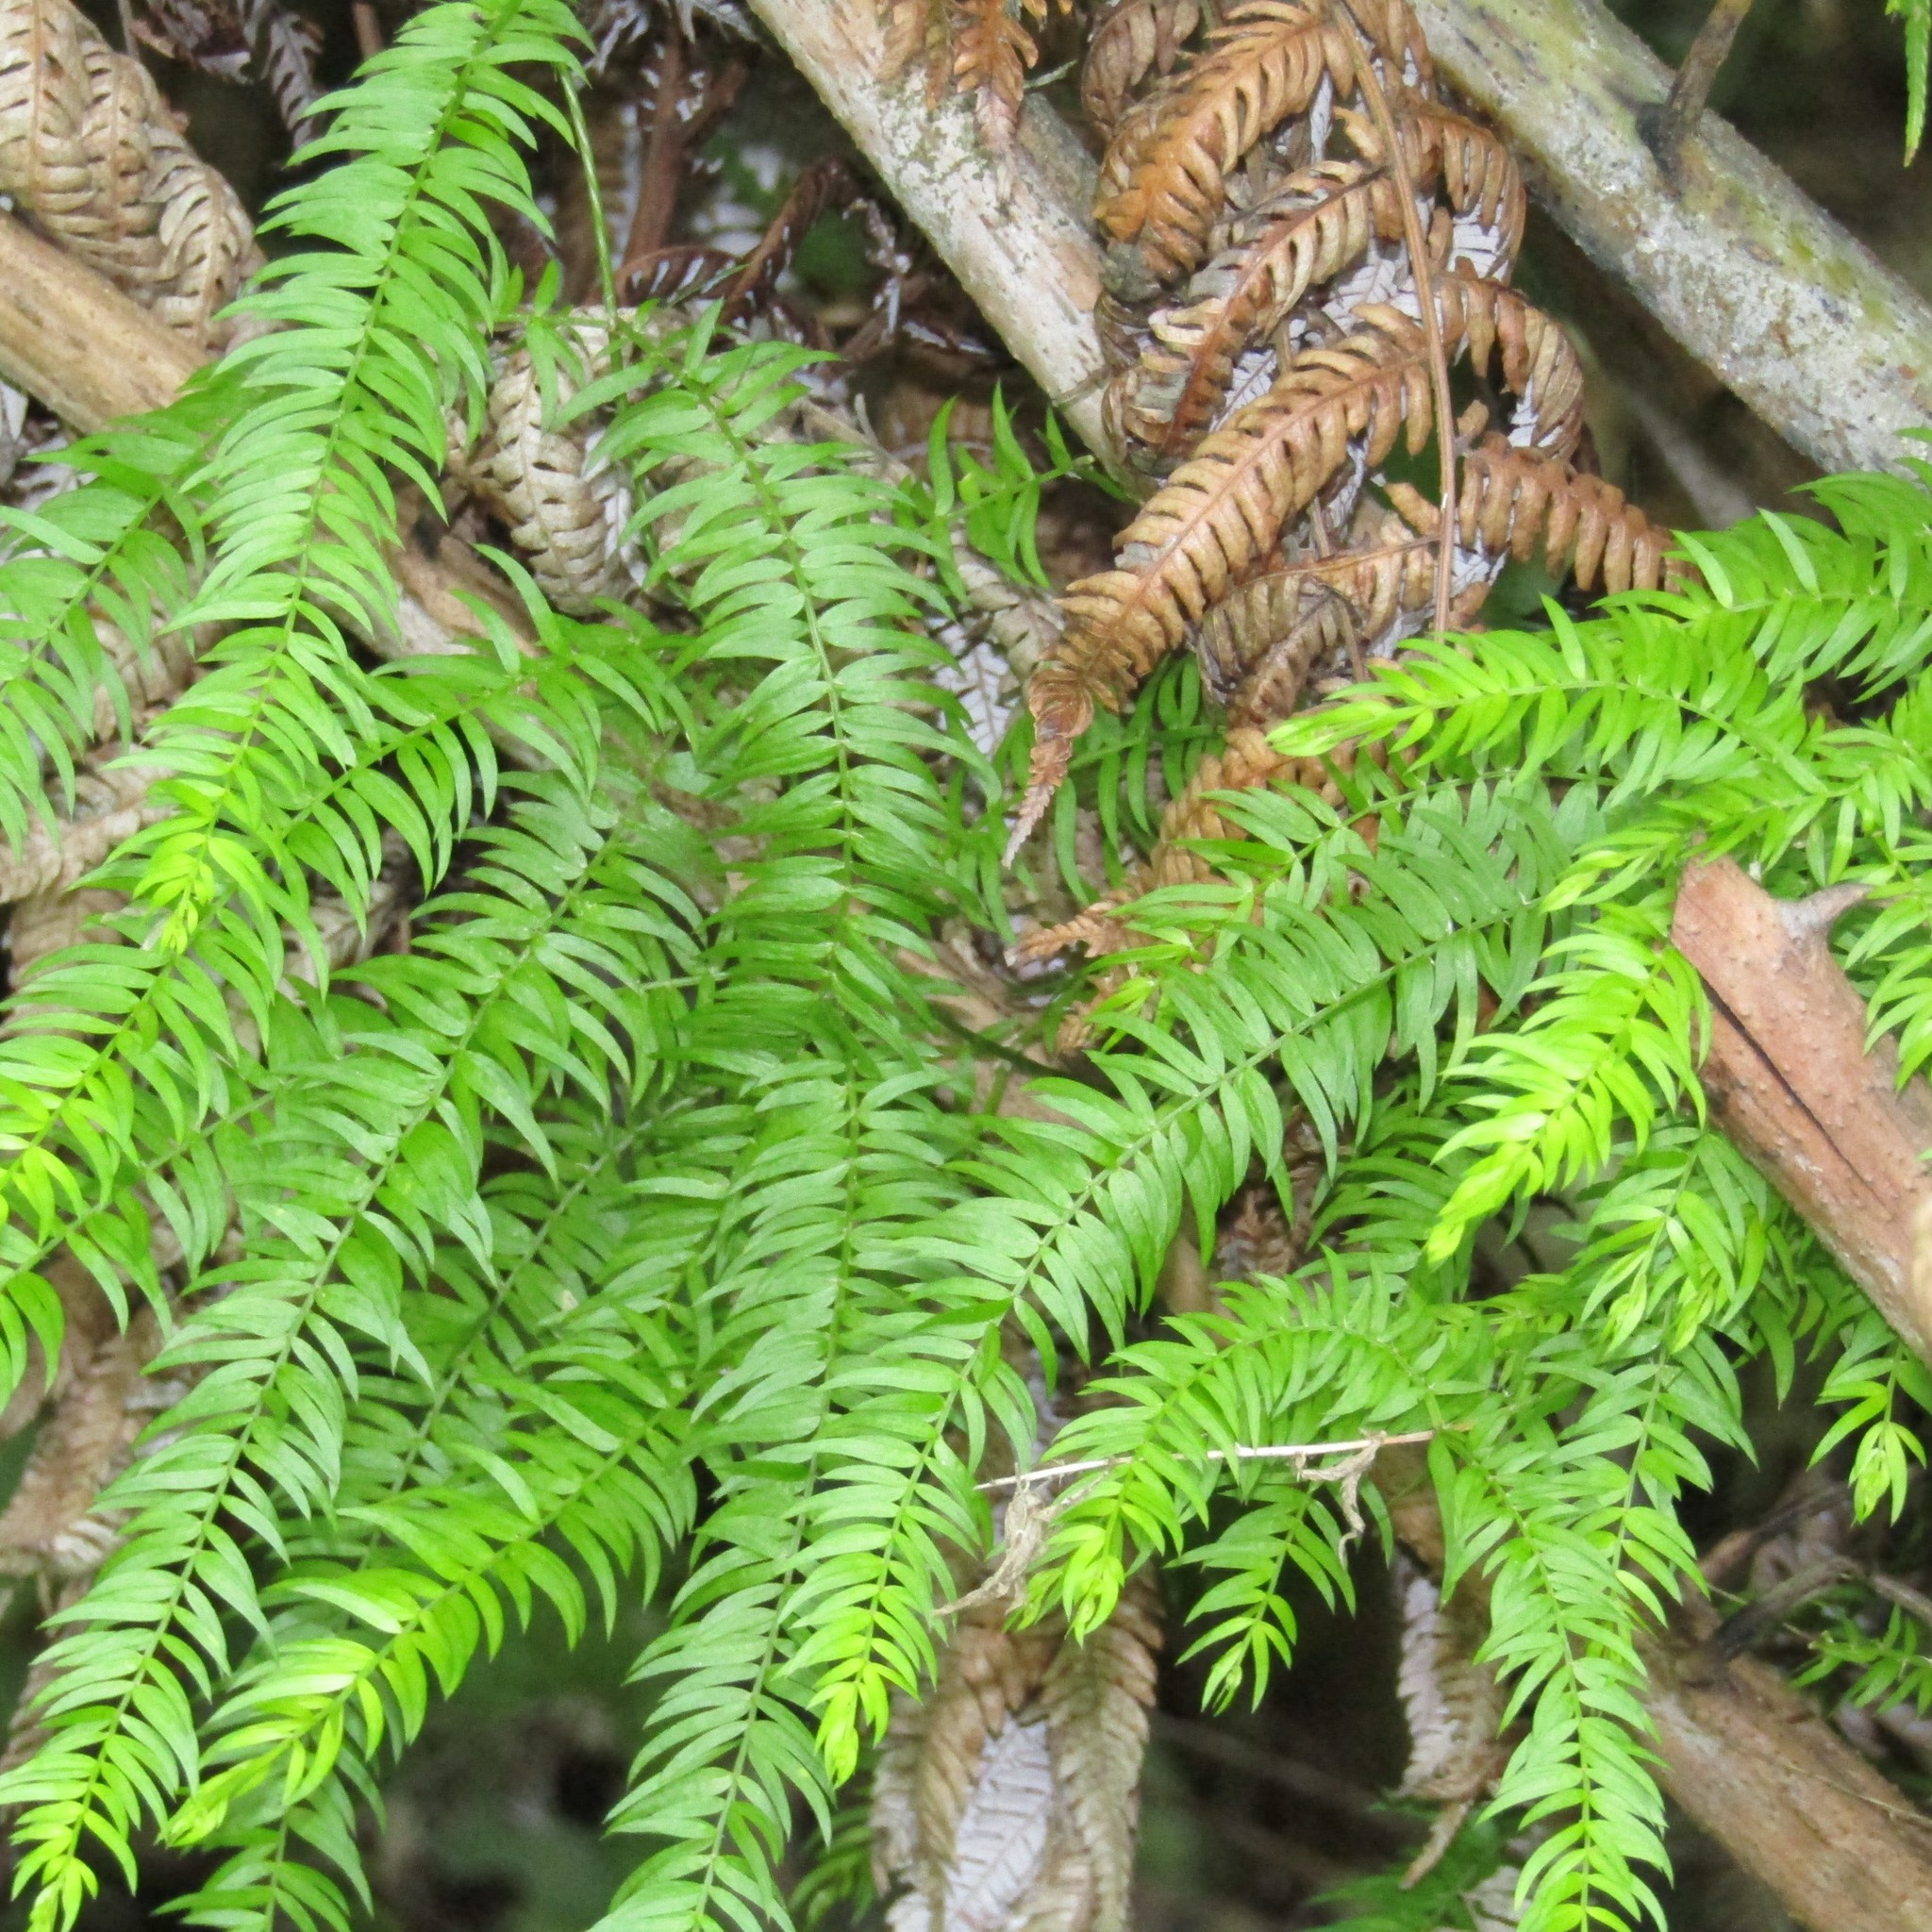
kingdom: Plantae
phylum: Tracheophyta
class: Liliopsida
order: Asparagales
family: Asparagaceae
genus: Asparagus
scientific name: Asparagus scandens
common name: Asparagus-fern
